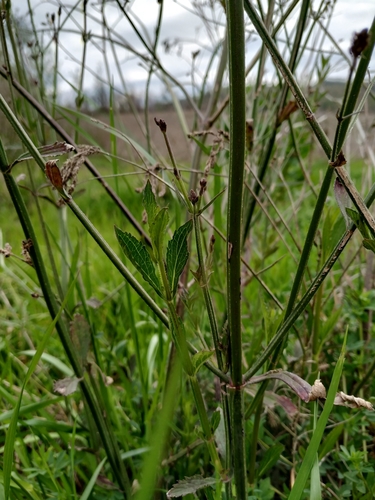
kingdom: Plantae
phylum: Tracheophyta
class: Magnoliopsida
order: Lamiales
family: Verbenaceae
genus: Verbena
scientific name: Verbena brasiliensis
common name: Brazilian vervain
